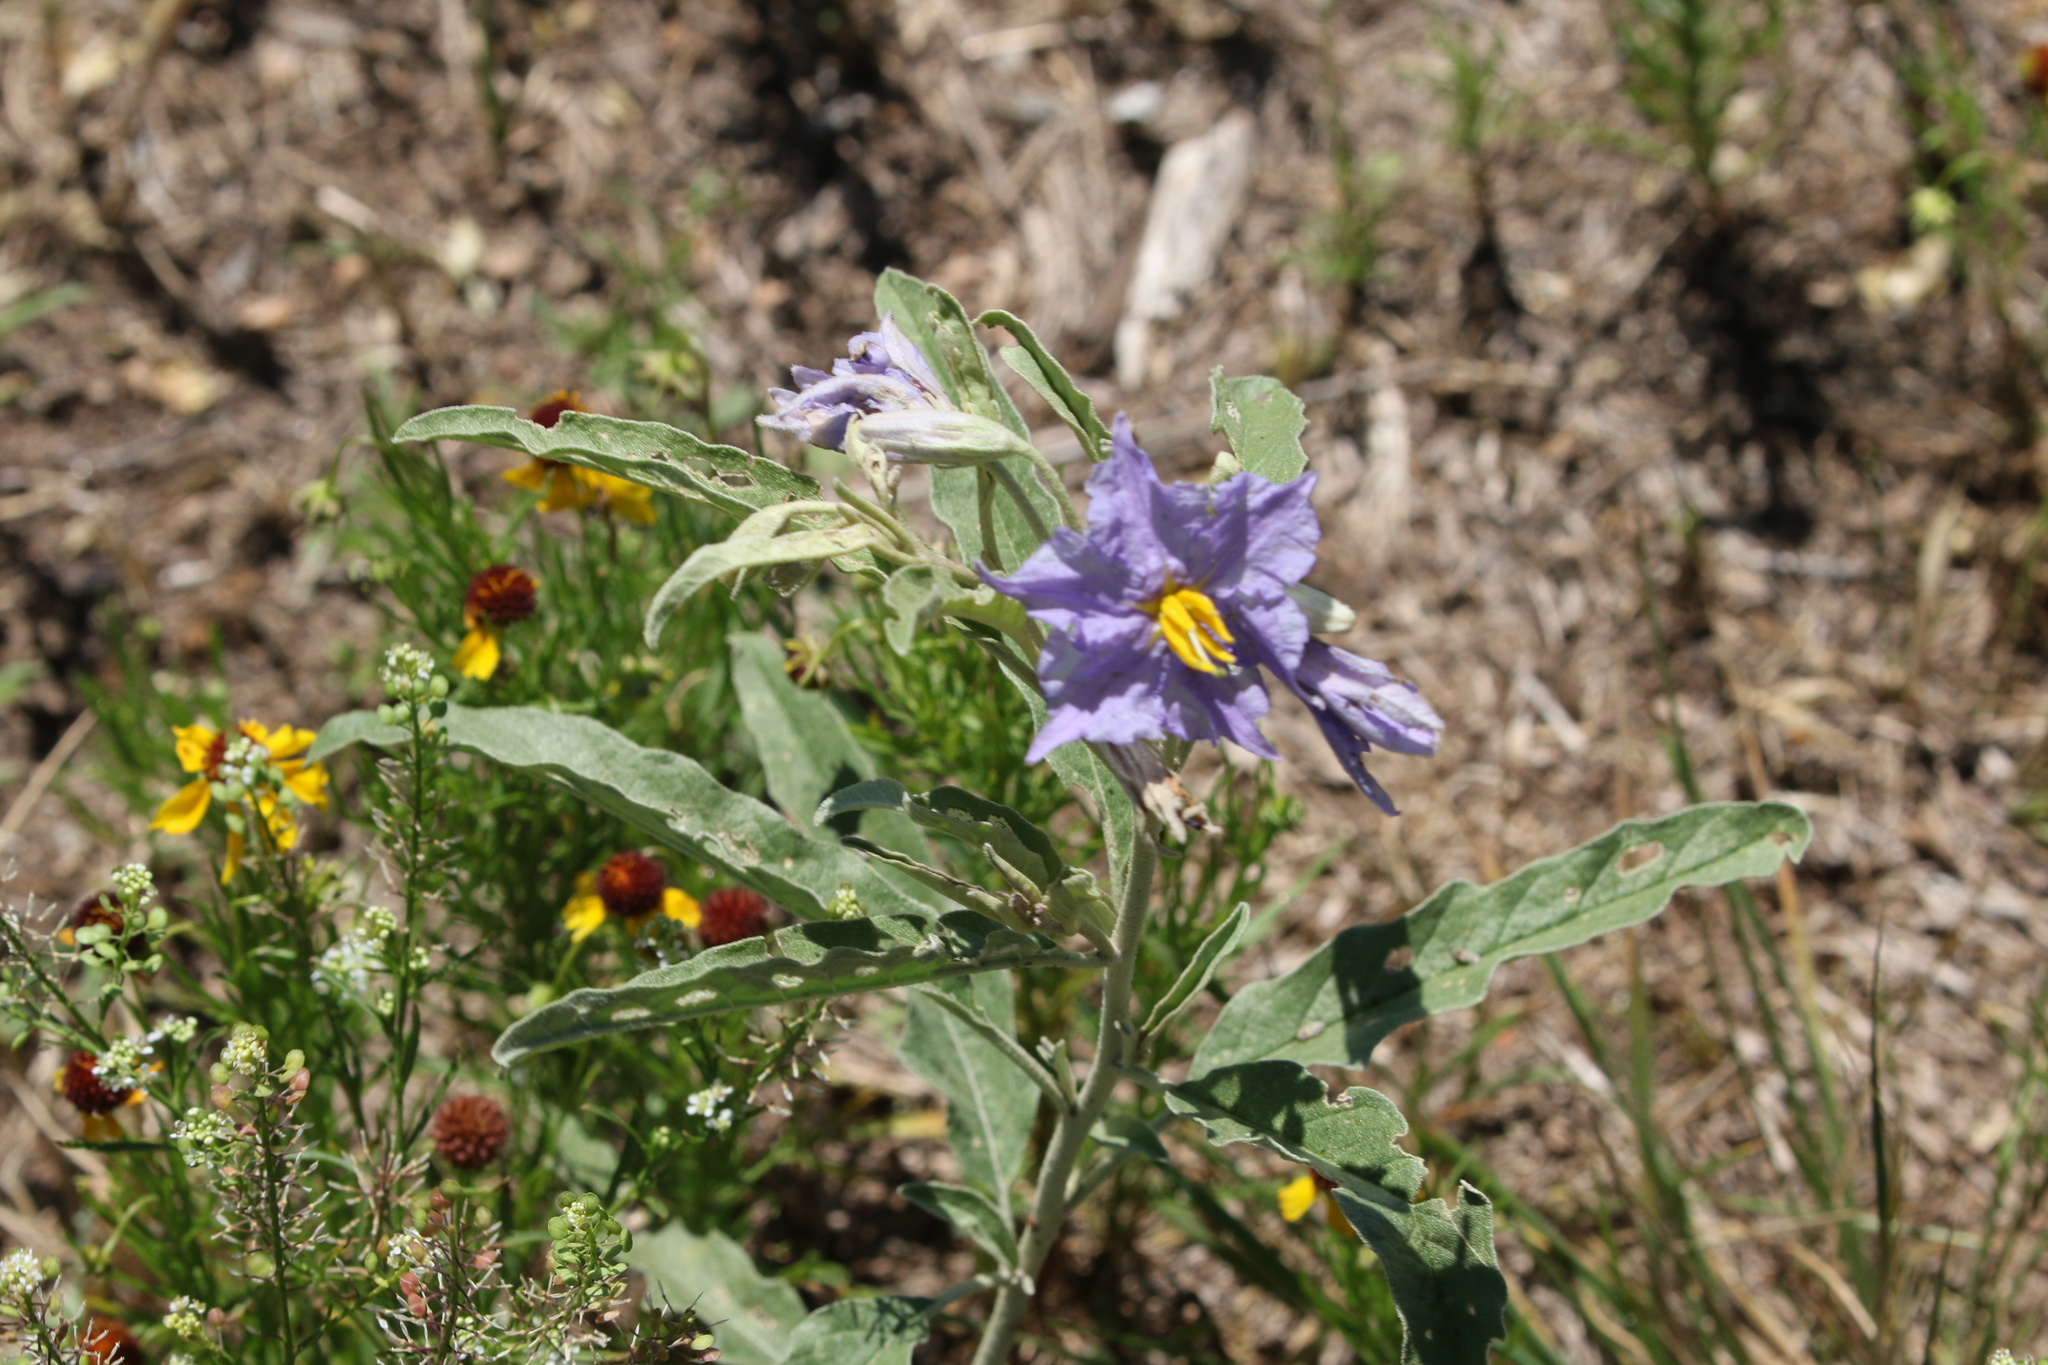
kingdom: Plantae
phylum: Tracheophyta
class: Magnoliopsida
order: Solanales
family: Solanaceae
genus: Solanum
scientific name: Solanum elaeagnifolium
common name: Silverleaf nightshade
